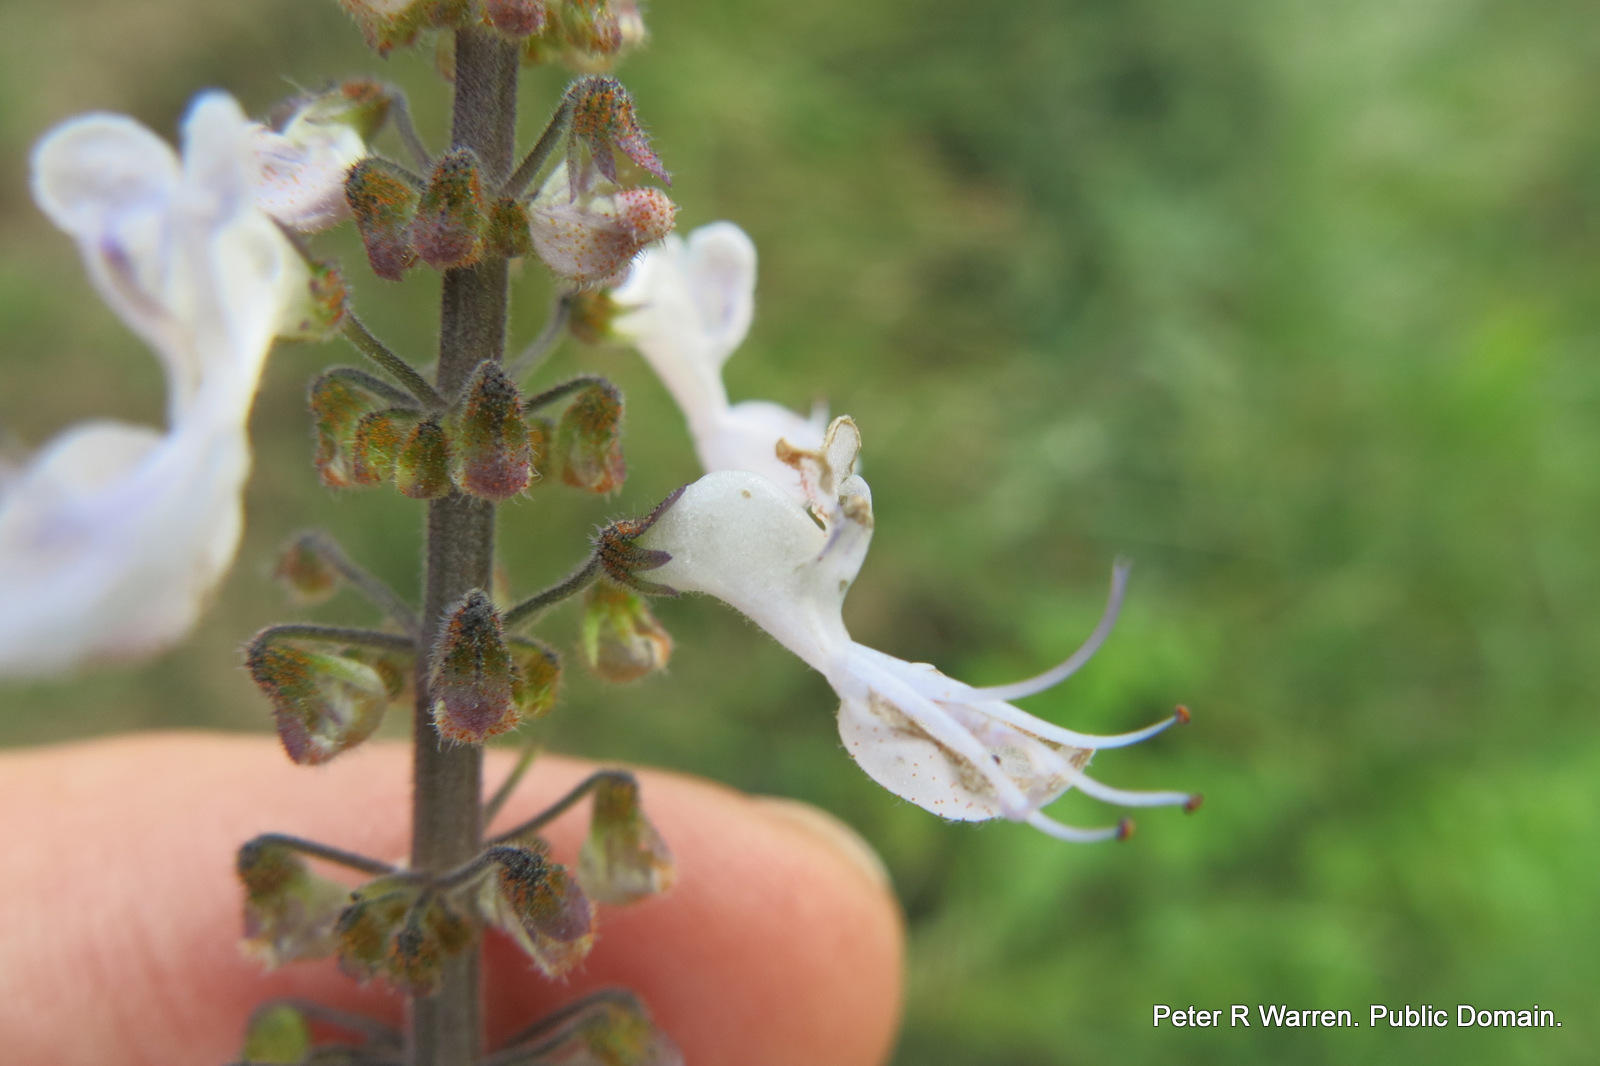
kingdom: Plantae
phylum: Tracheophyta
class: Magnoliopsida
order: Lamiales
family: Lamiaceae
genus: Coleus
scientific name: Coleus hadiensis
